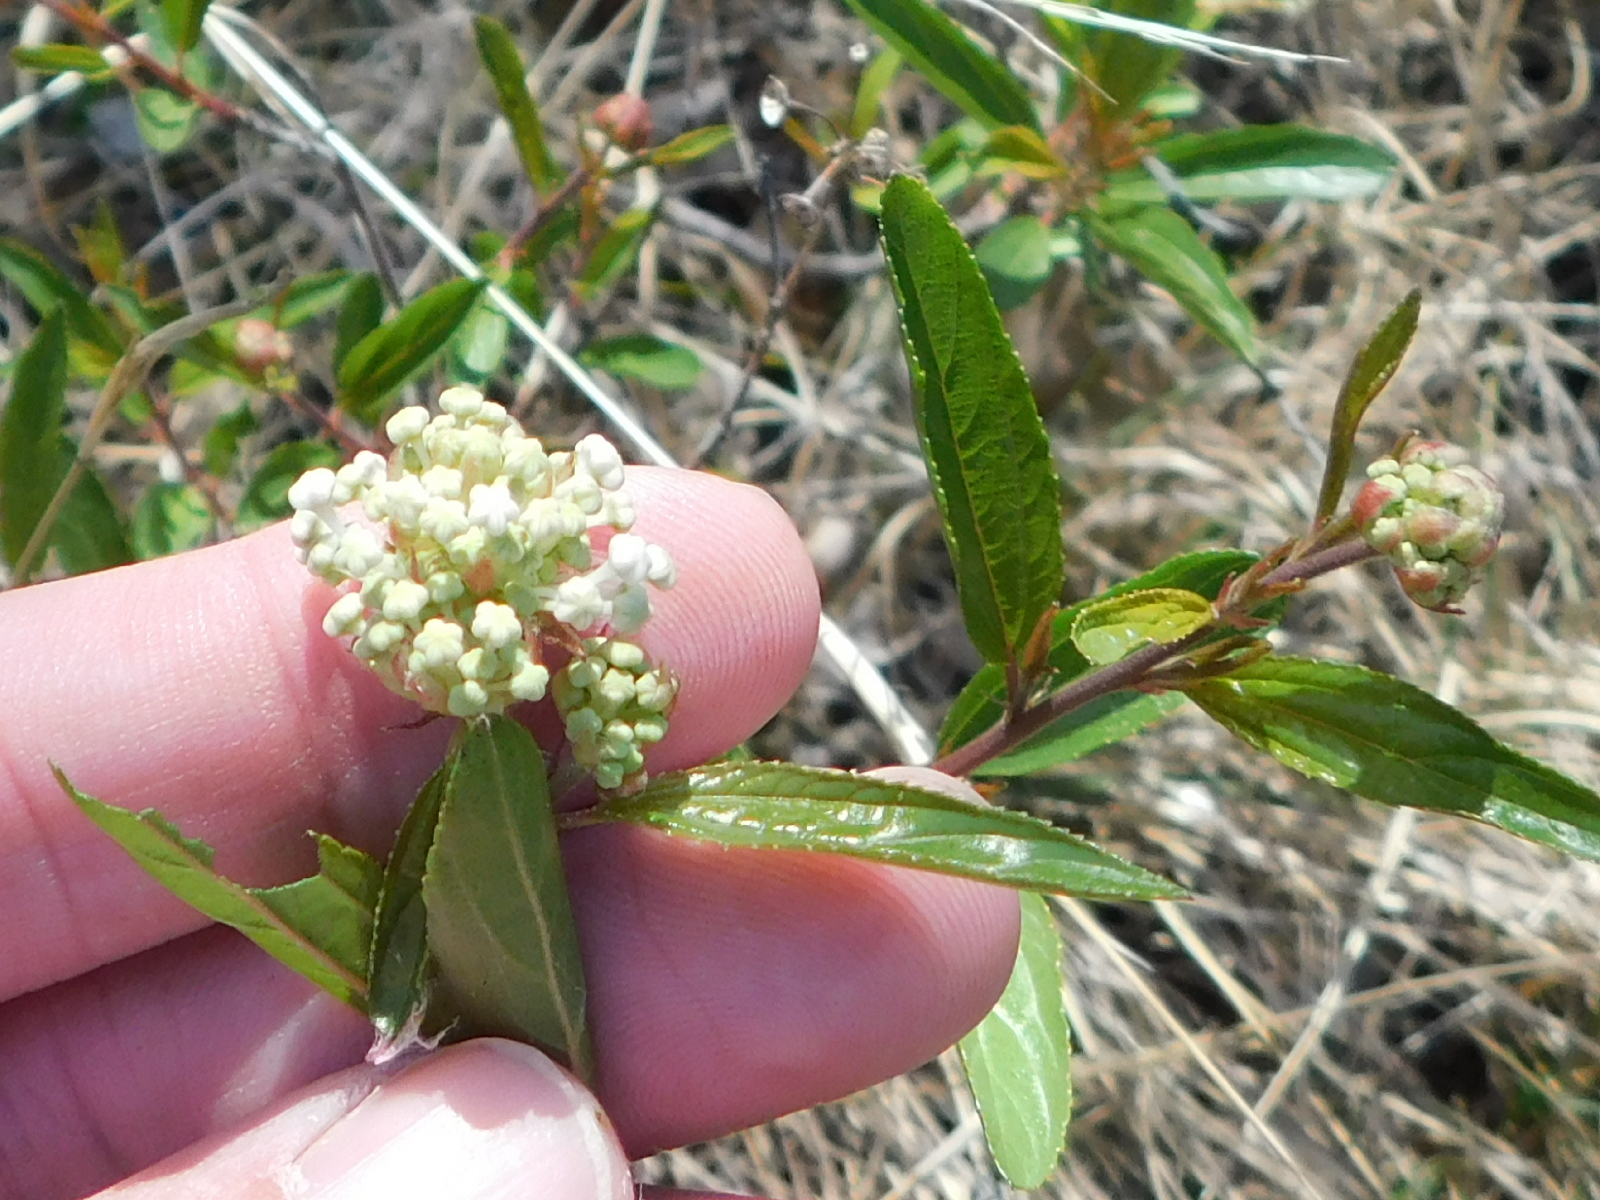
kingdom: Plantae
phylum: Tracheophyta
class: Magnoliopsida
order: Rosales
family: Rhamnaceae
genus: Ceanothus
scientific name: Ceanothus herbaceus
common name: Inland ceanothus
